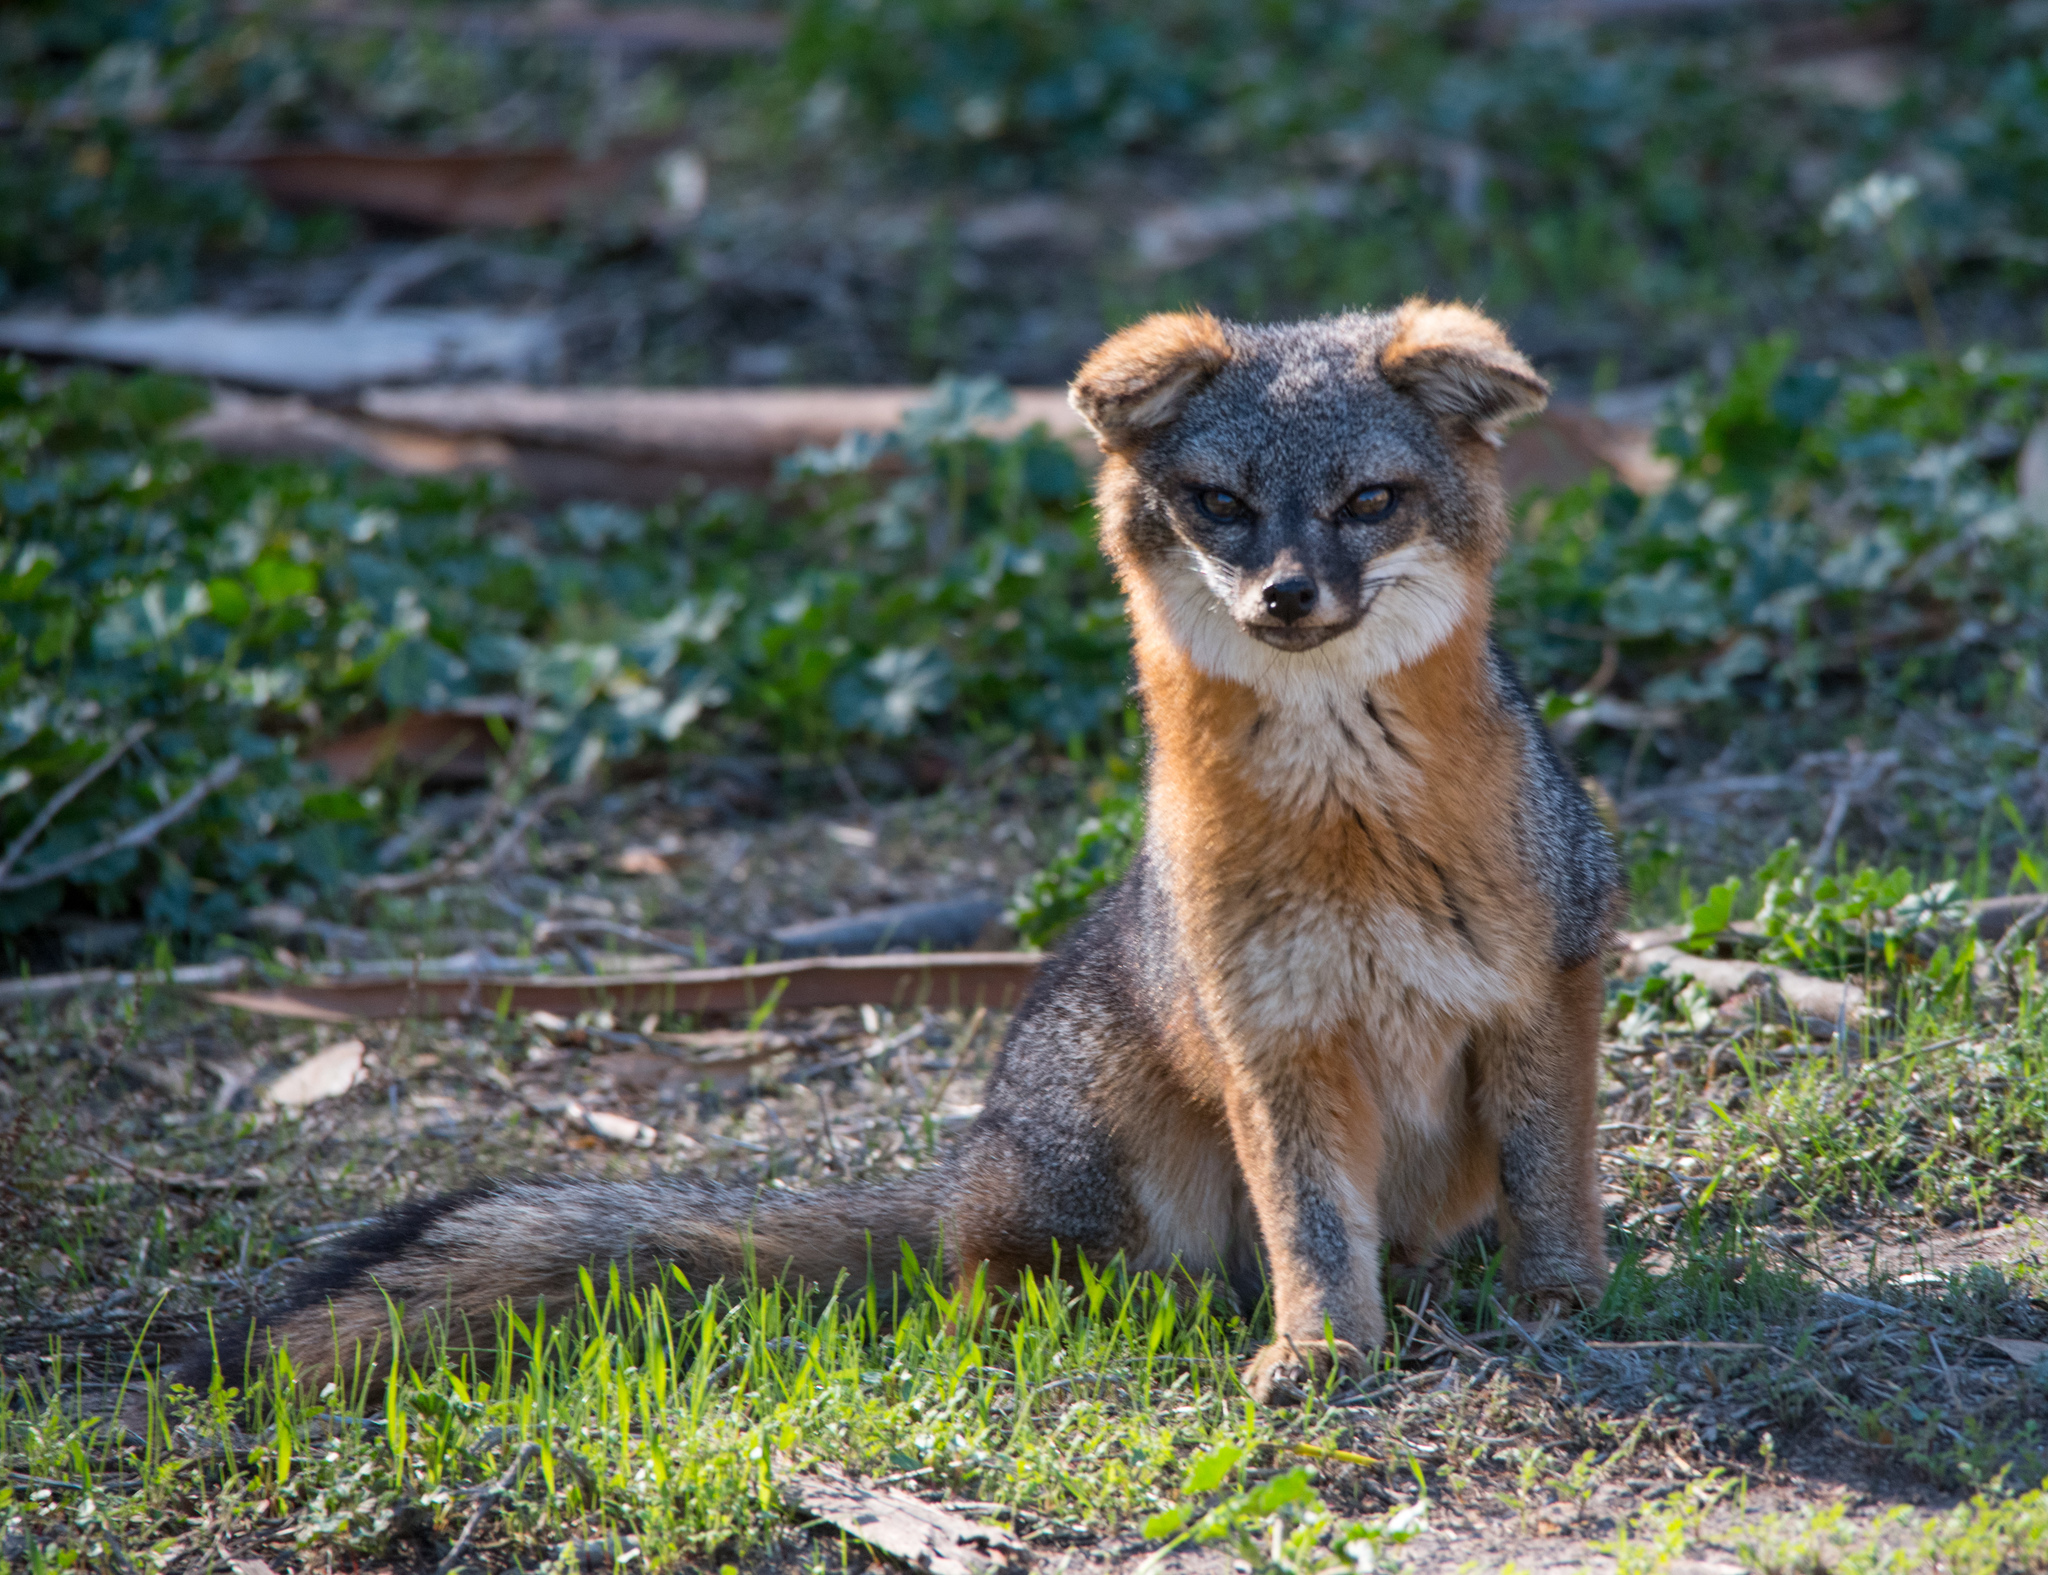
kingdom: Animalia
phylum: Chordata
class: Mammalia
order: Carnivora
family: Canidae
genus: Urocyon
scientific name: Urocyon littoralis
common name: Island gray fox
